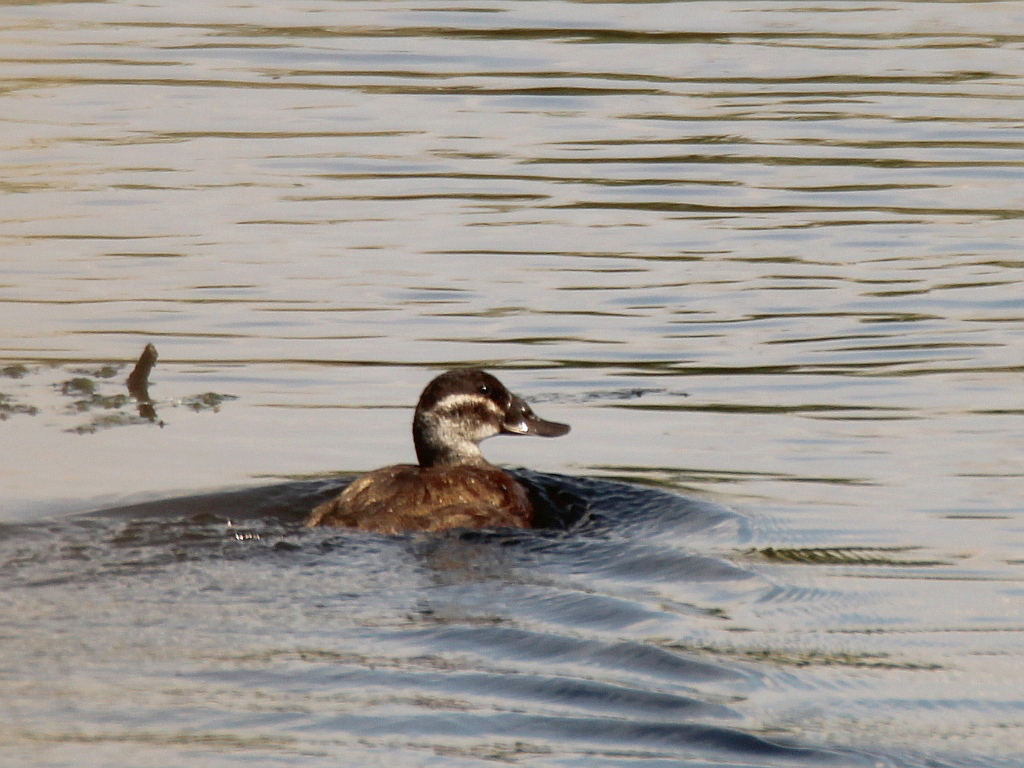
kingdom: Animalia
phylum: Chordata
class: Aves
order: Anseriformes
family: Anatidae
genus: Oxyura
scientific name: Oxyura leucocephala
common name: White-headed duck
